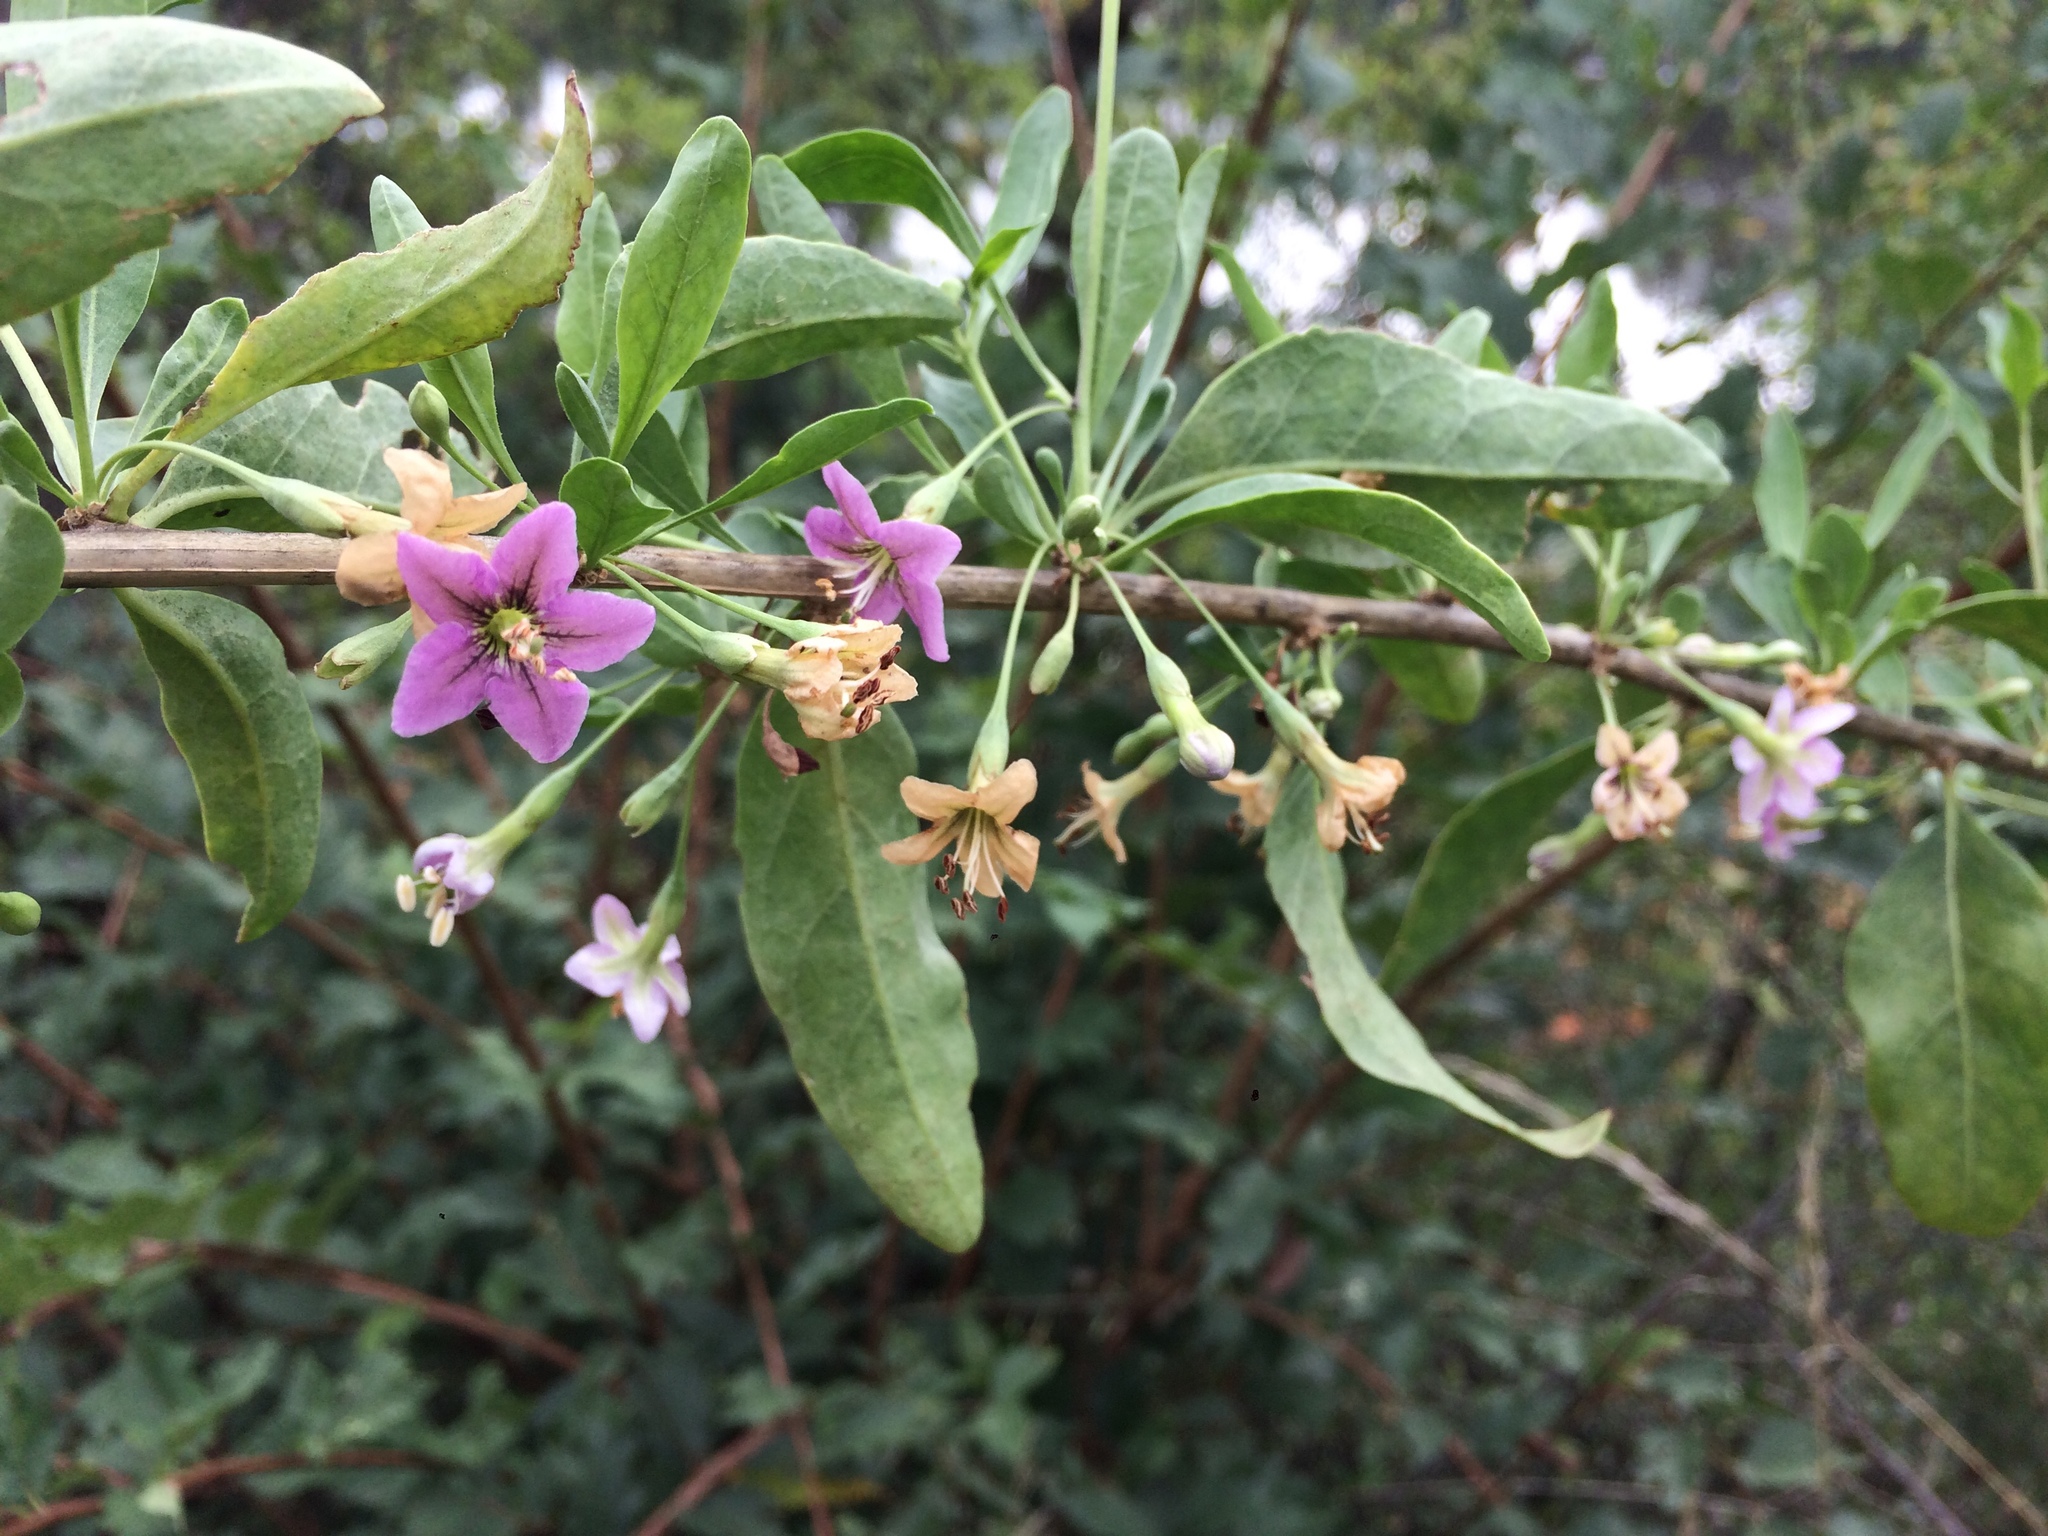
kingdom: Plantae
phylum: Tracheophyta
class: Magnoliopsida
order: Solanales
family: Solanaceae
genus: Lycium
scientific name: Lycium barbarum
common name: Duke of argyll's teaplant
